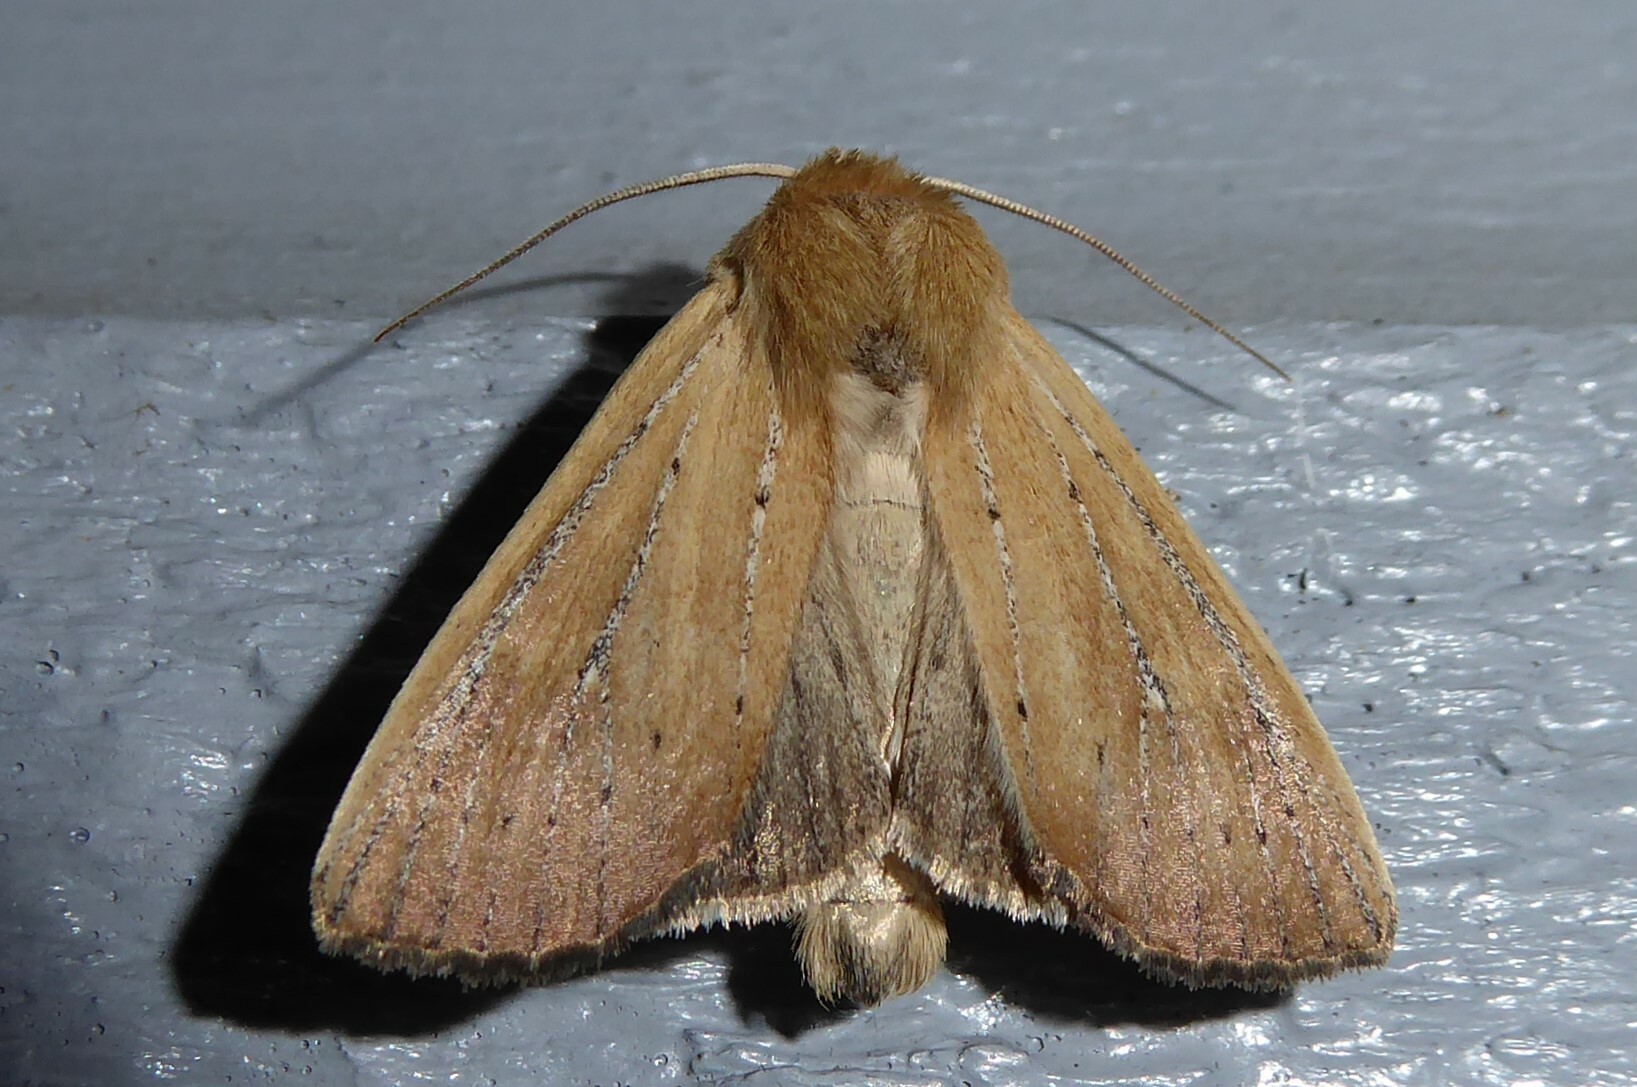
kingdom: Animalia
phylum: Arthropoda
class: Insecta
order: Lepidoptera
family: Noctuidae
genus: Ichneutica
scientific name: Ichneutica blenheimensis
